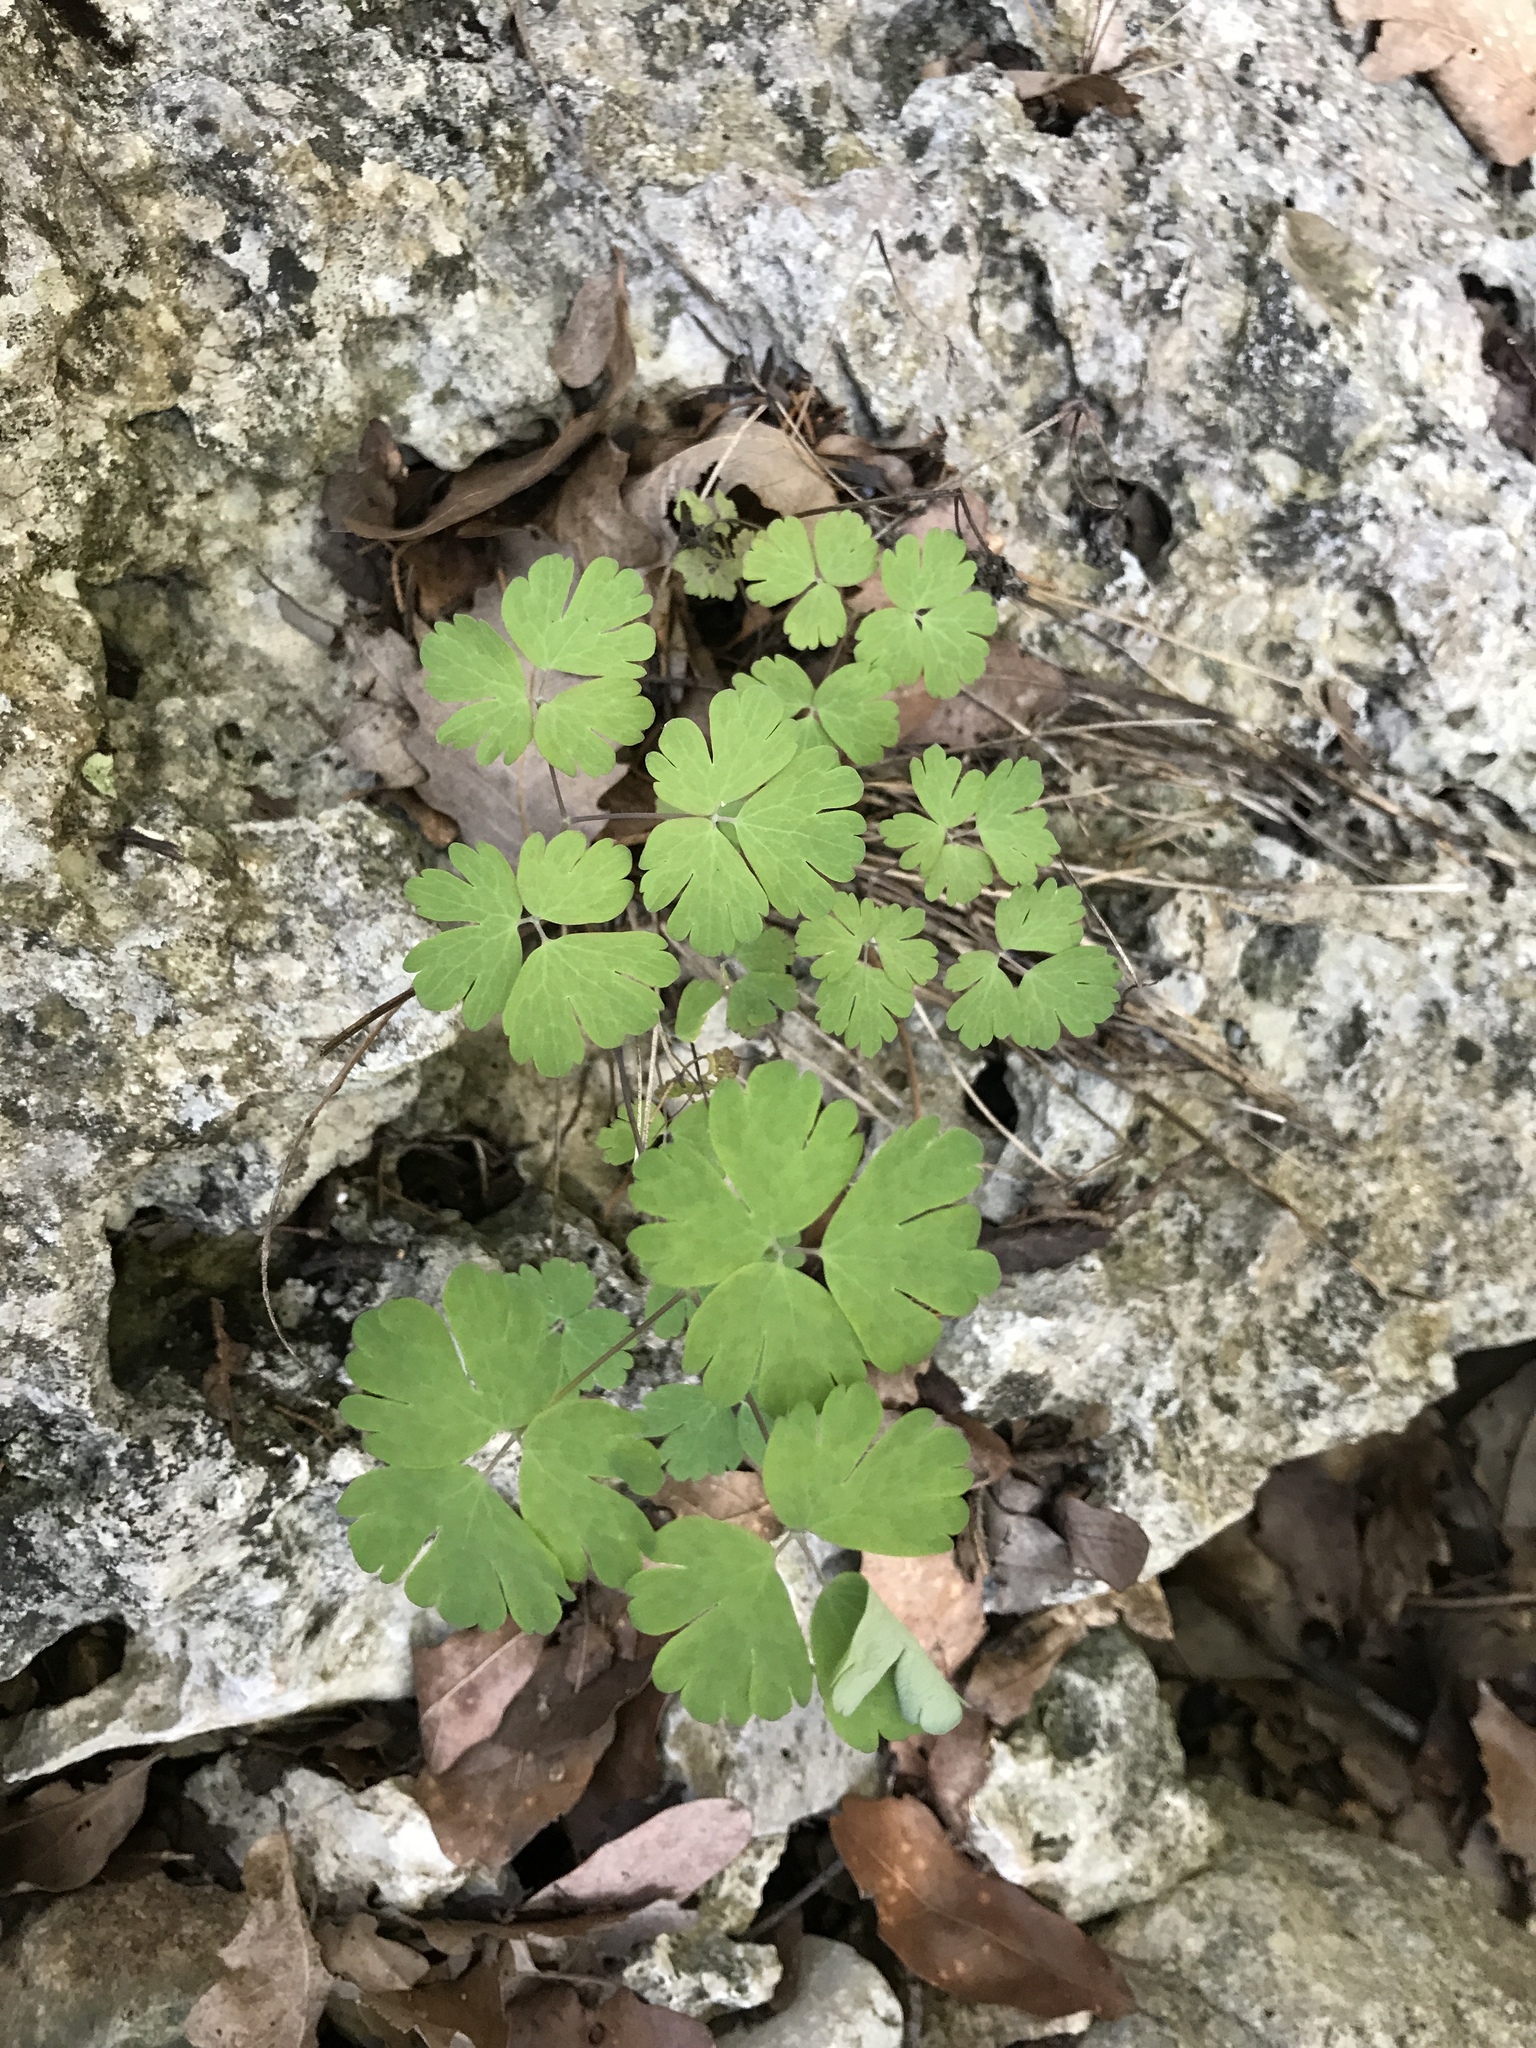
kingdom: Plantae
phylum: Tracheophyta
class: Magnoliopsida
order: Ranunculales
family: Ranunculaceae
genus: Aquilegia
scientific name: Aquilegia canadensis
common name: American columbine
